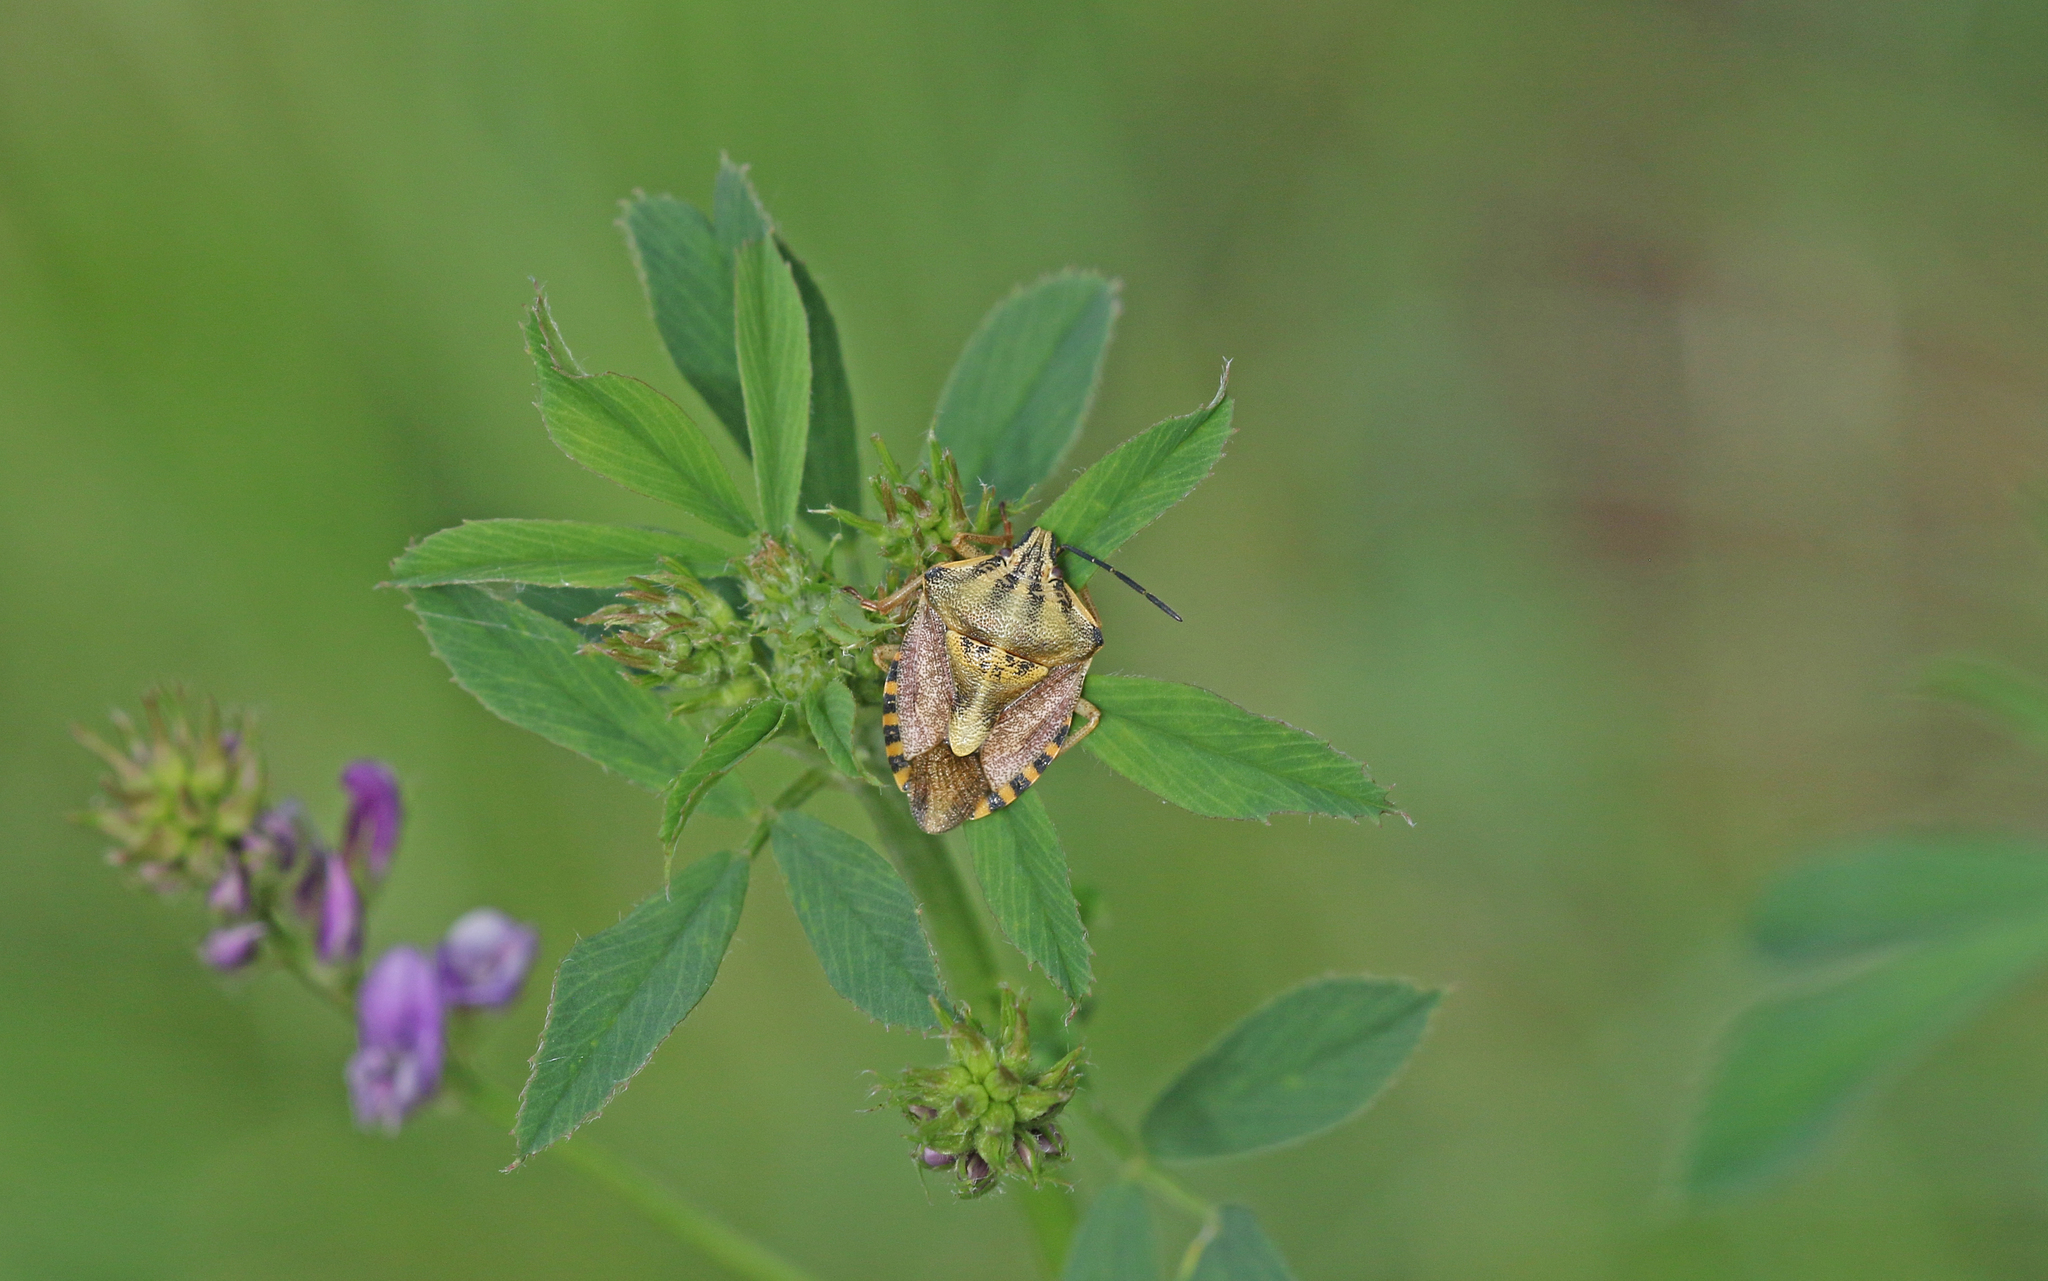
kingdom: Animalia
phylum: Arthropoda
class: Insecta
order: Hemiptera
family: Pentatomidae
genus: Carpocoris
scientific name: Carpocoris purpureipennis
